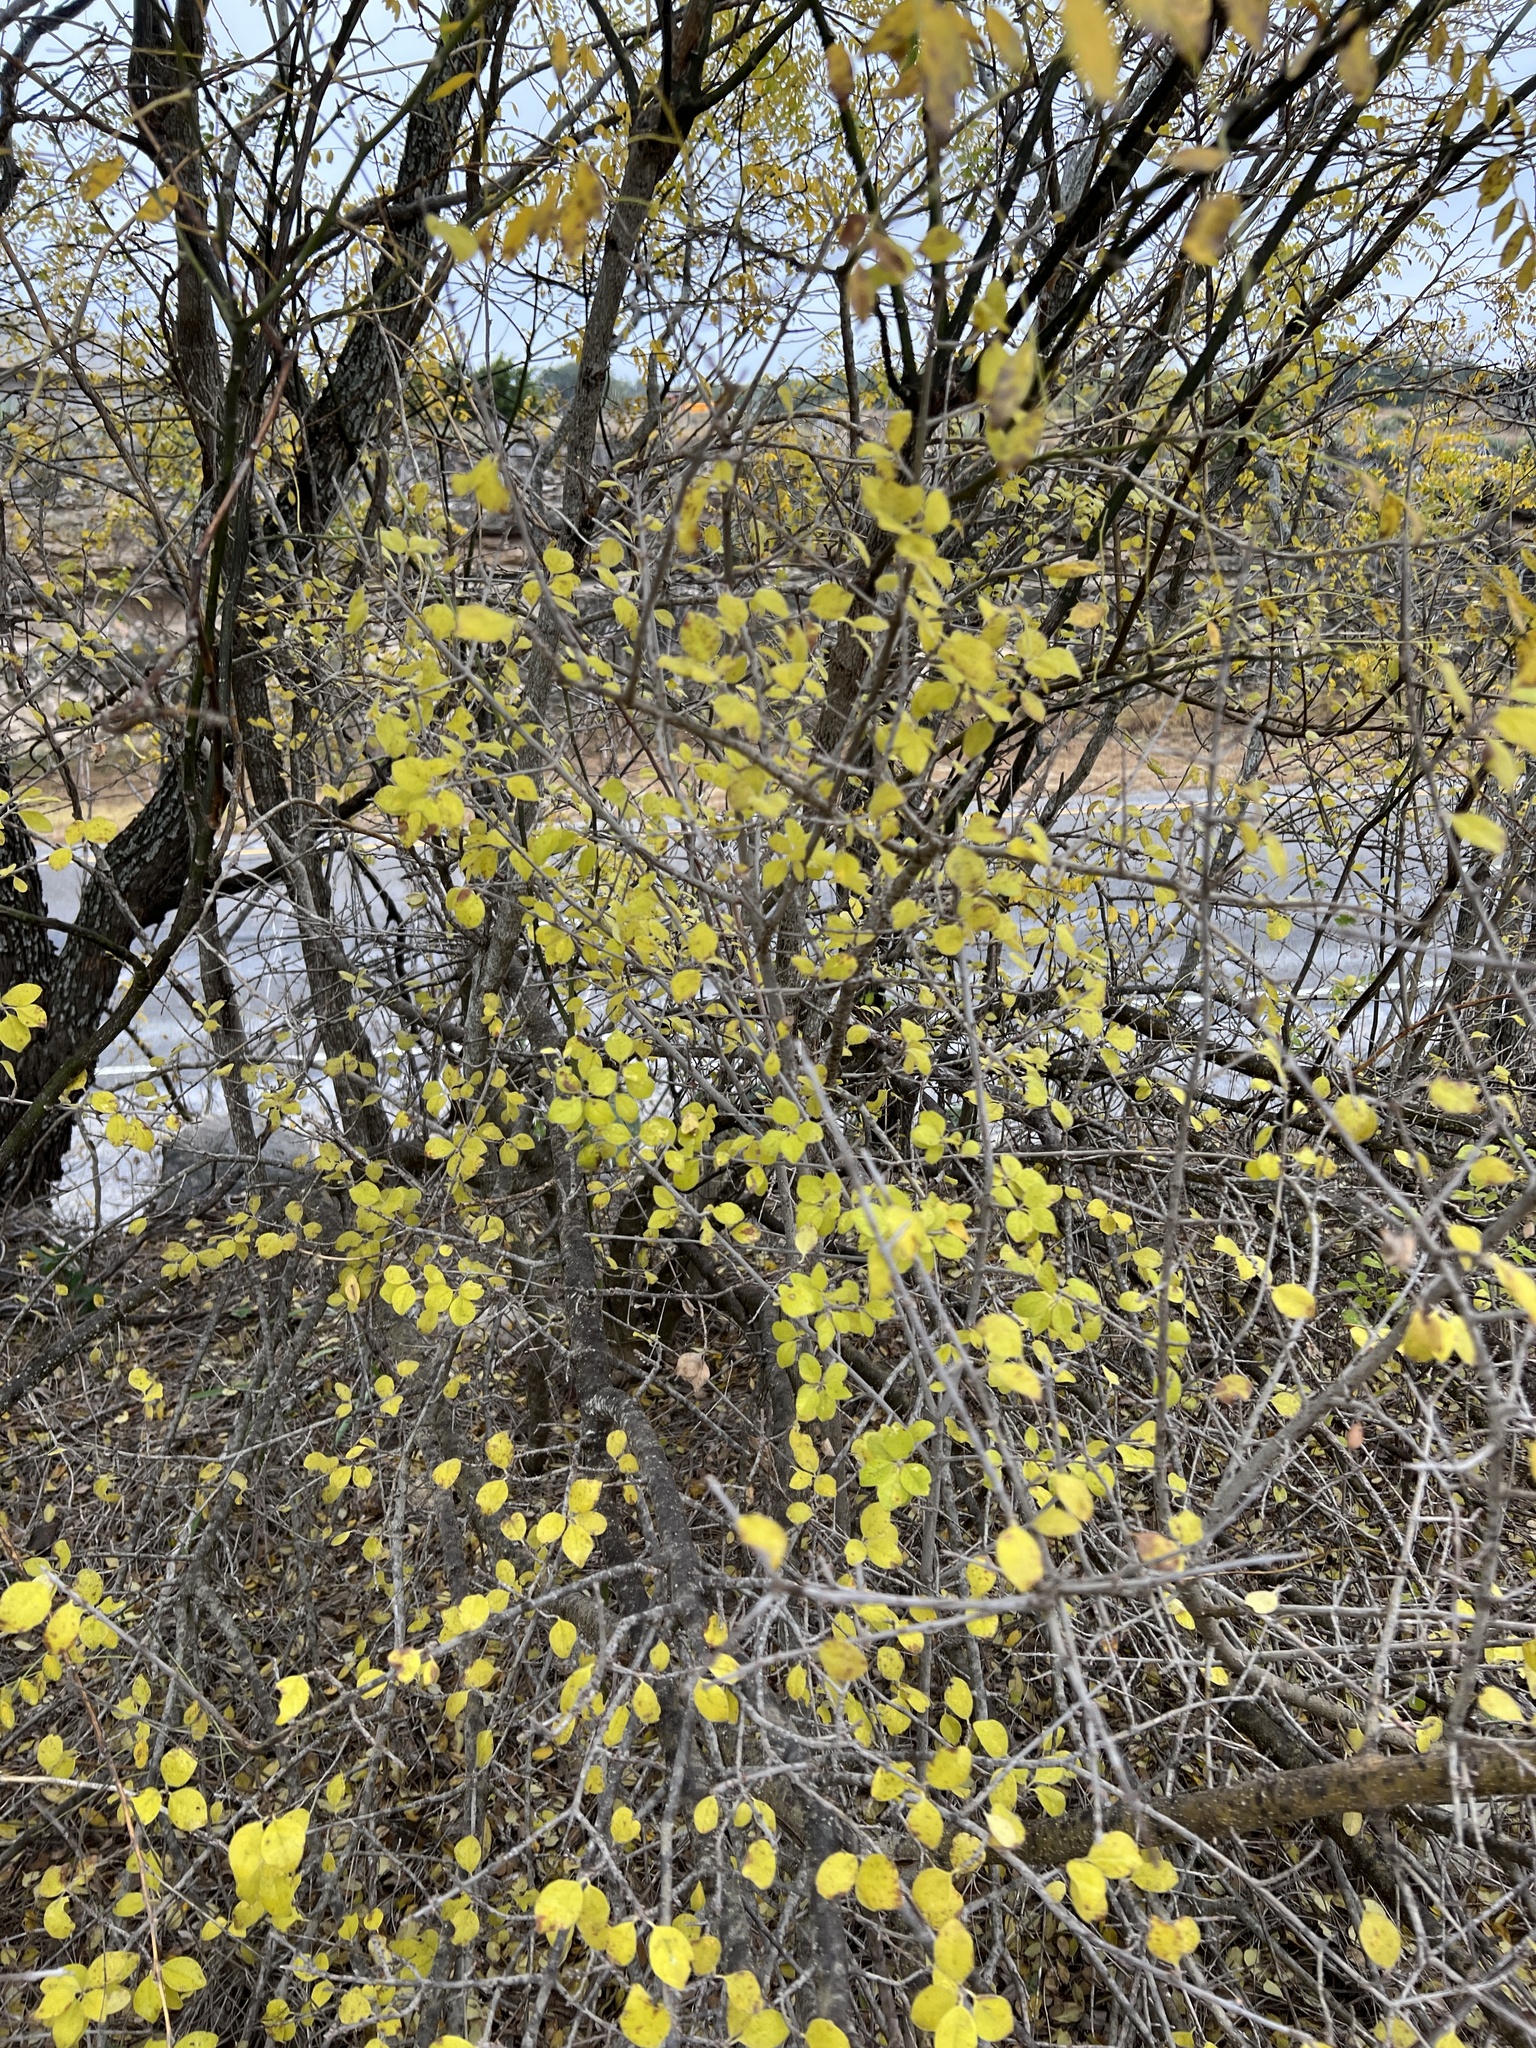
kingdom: Plantae
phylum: Tracheophyta
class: Magnoliopsida
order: Lamiales
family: Oleaceae
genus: Forestiera
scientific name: Forestiera pubescens
